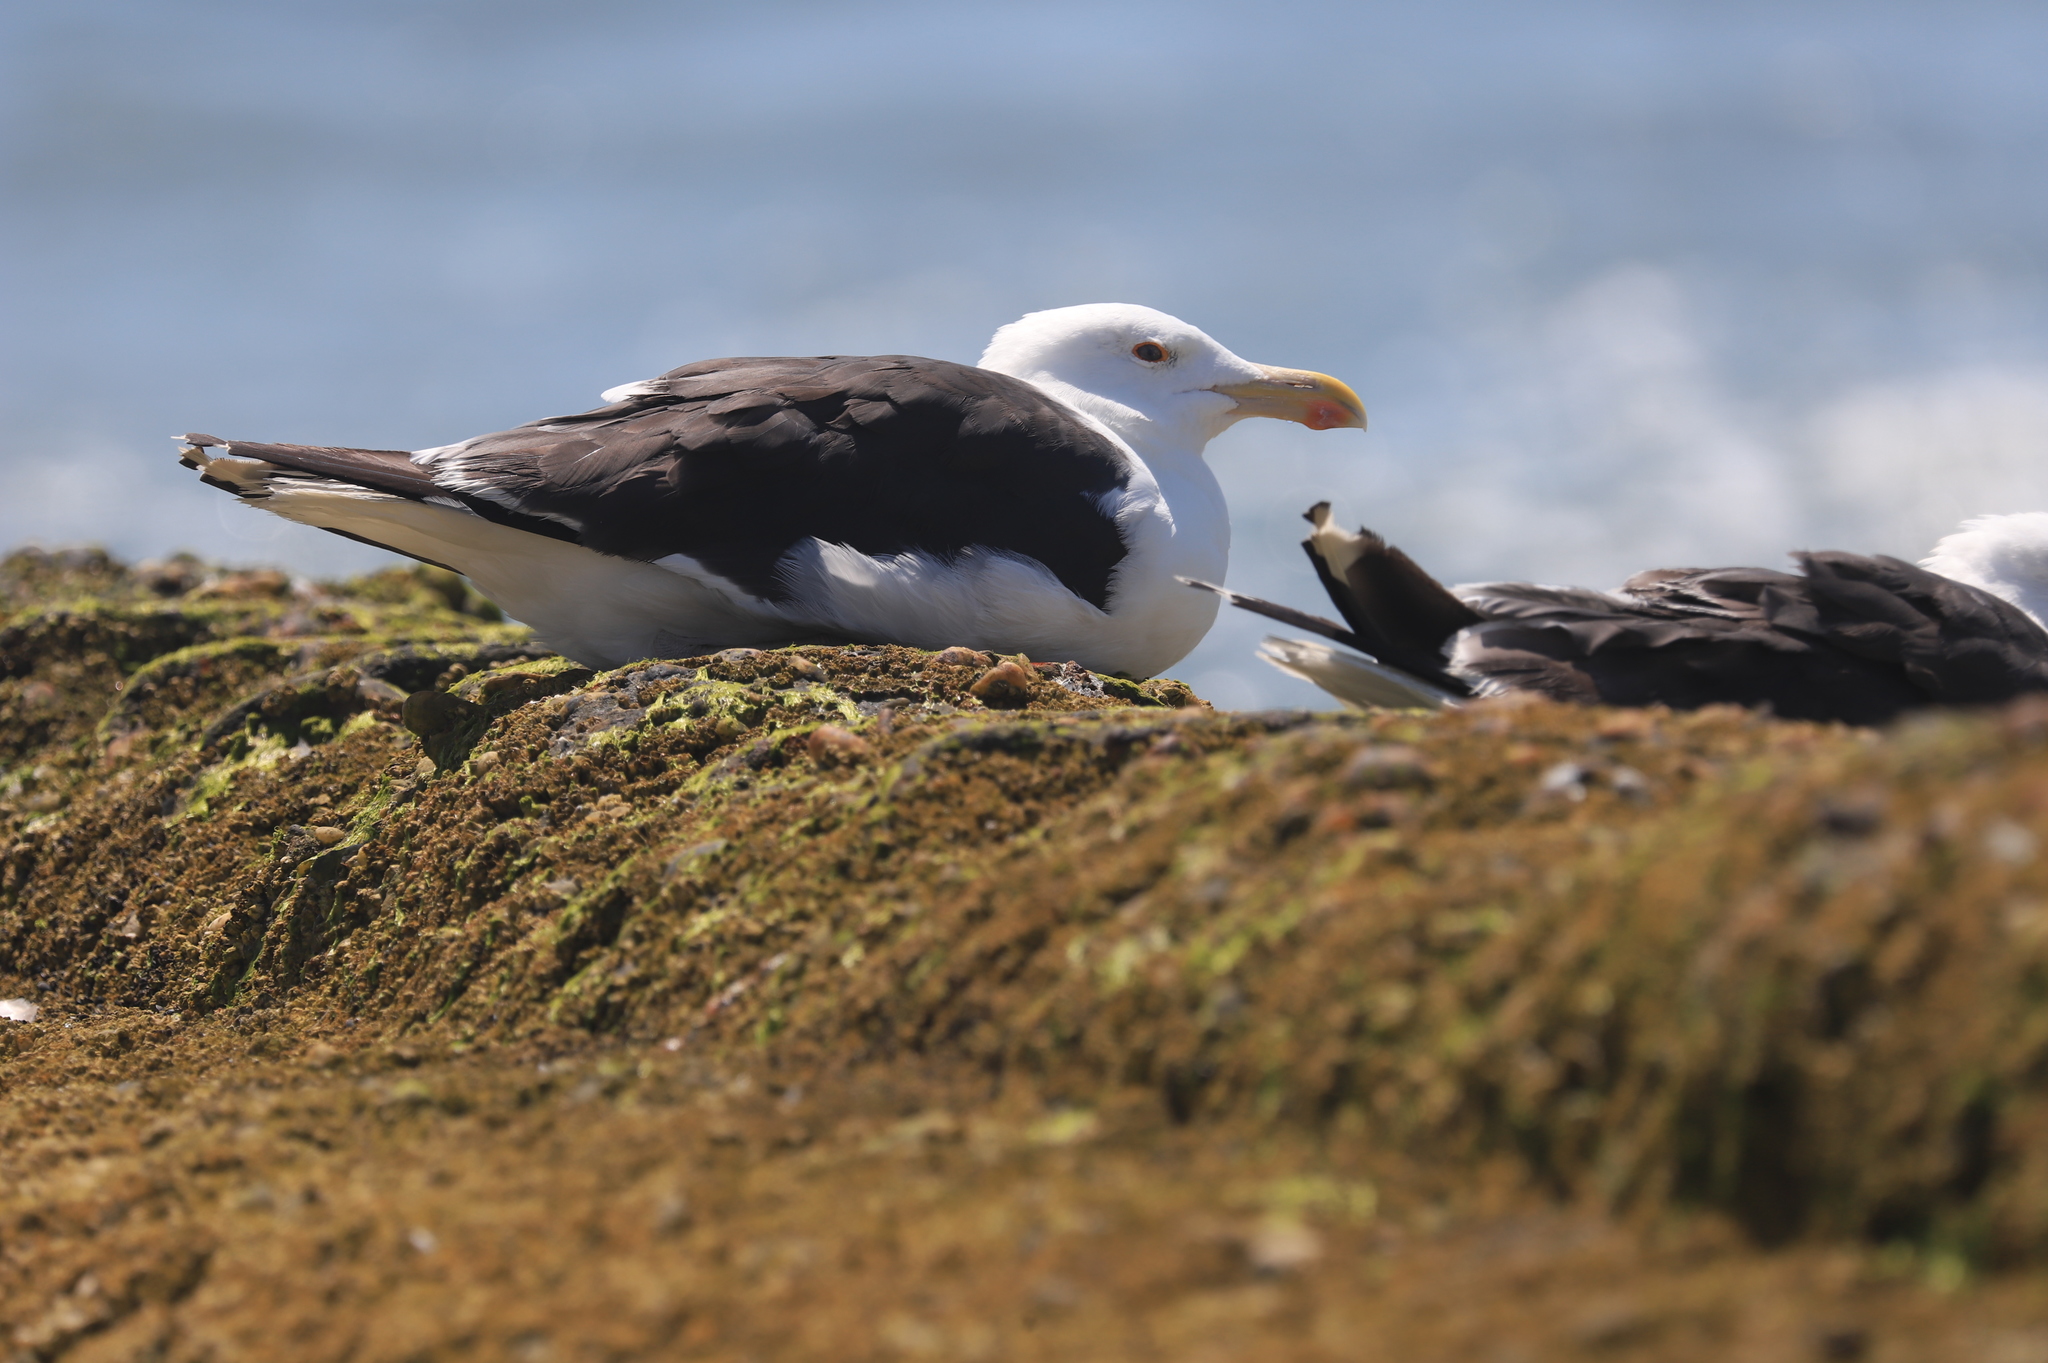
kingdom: Animalia
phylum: Chordata
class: Aves
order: Charadriiformes
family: Laridae
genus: Larus
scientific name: Larus marinus
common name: Great black-backed gull
